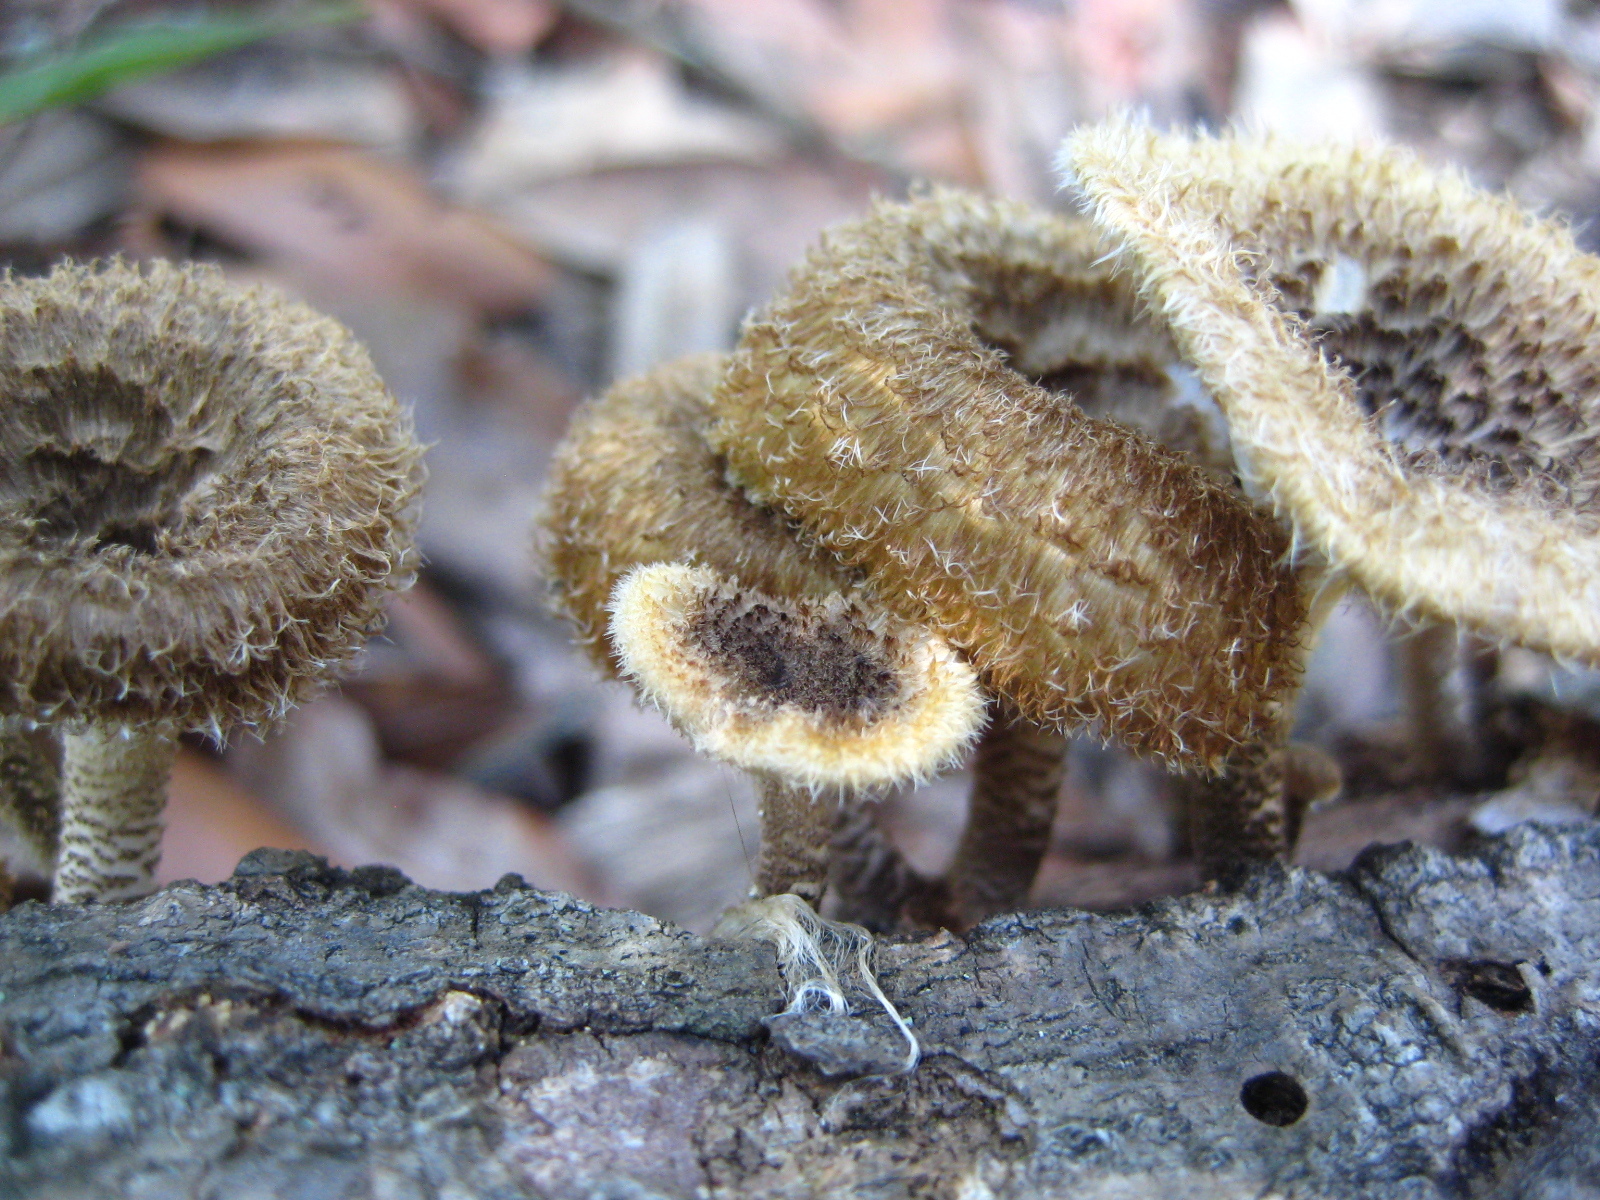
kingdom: Fungi
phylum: Basidiomycota
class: Agaricomycetes
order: Polyporales
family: Polyporaceae
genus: Lentinus
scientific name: Lentinus crinitus
